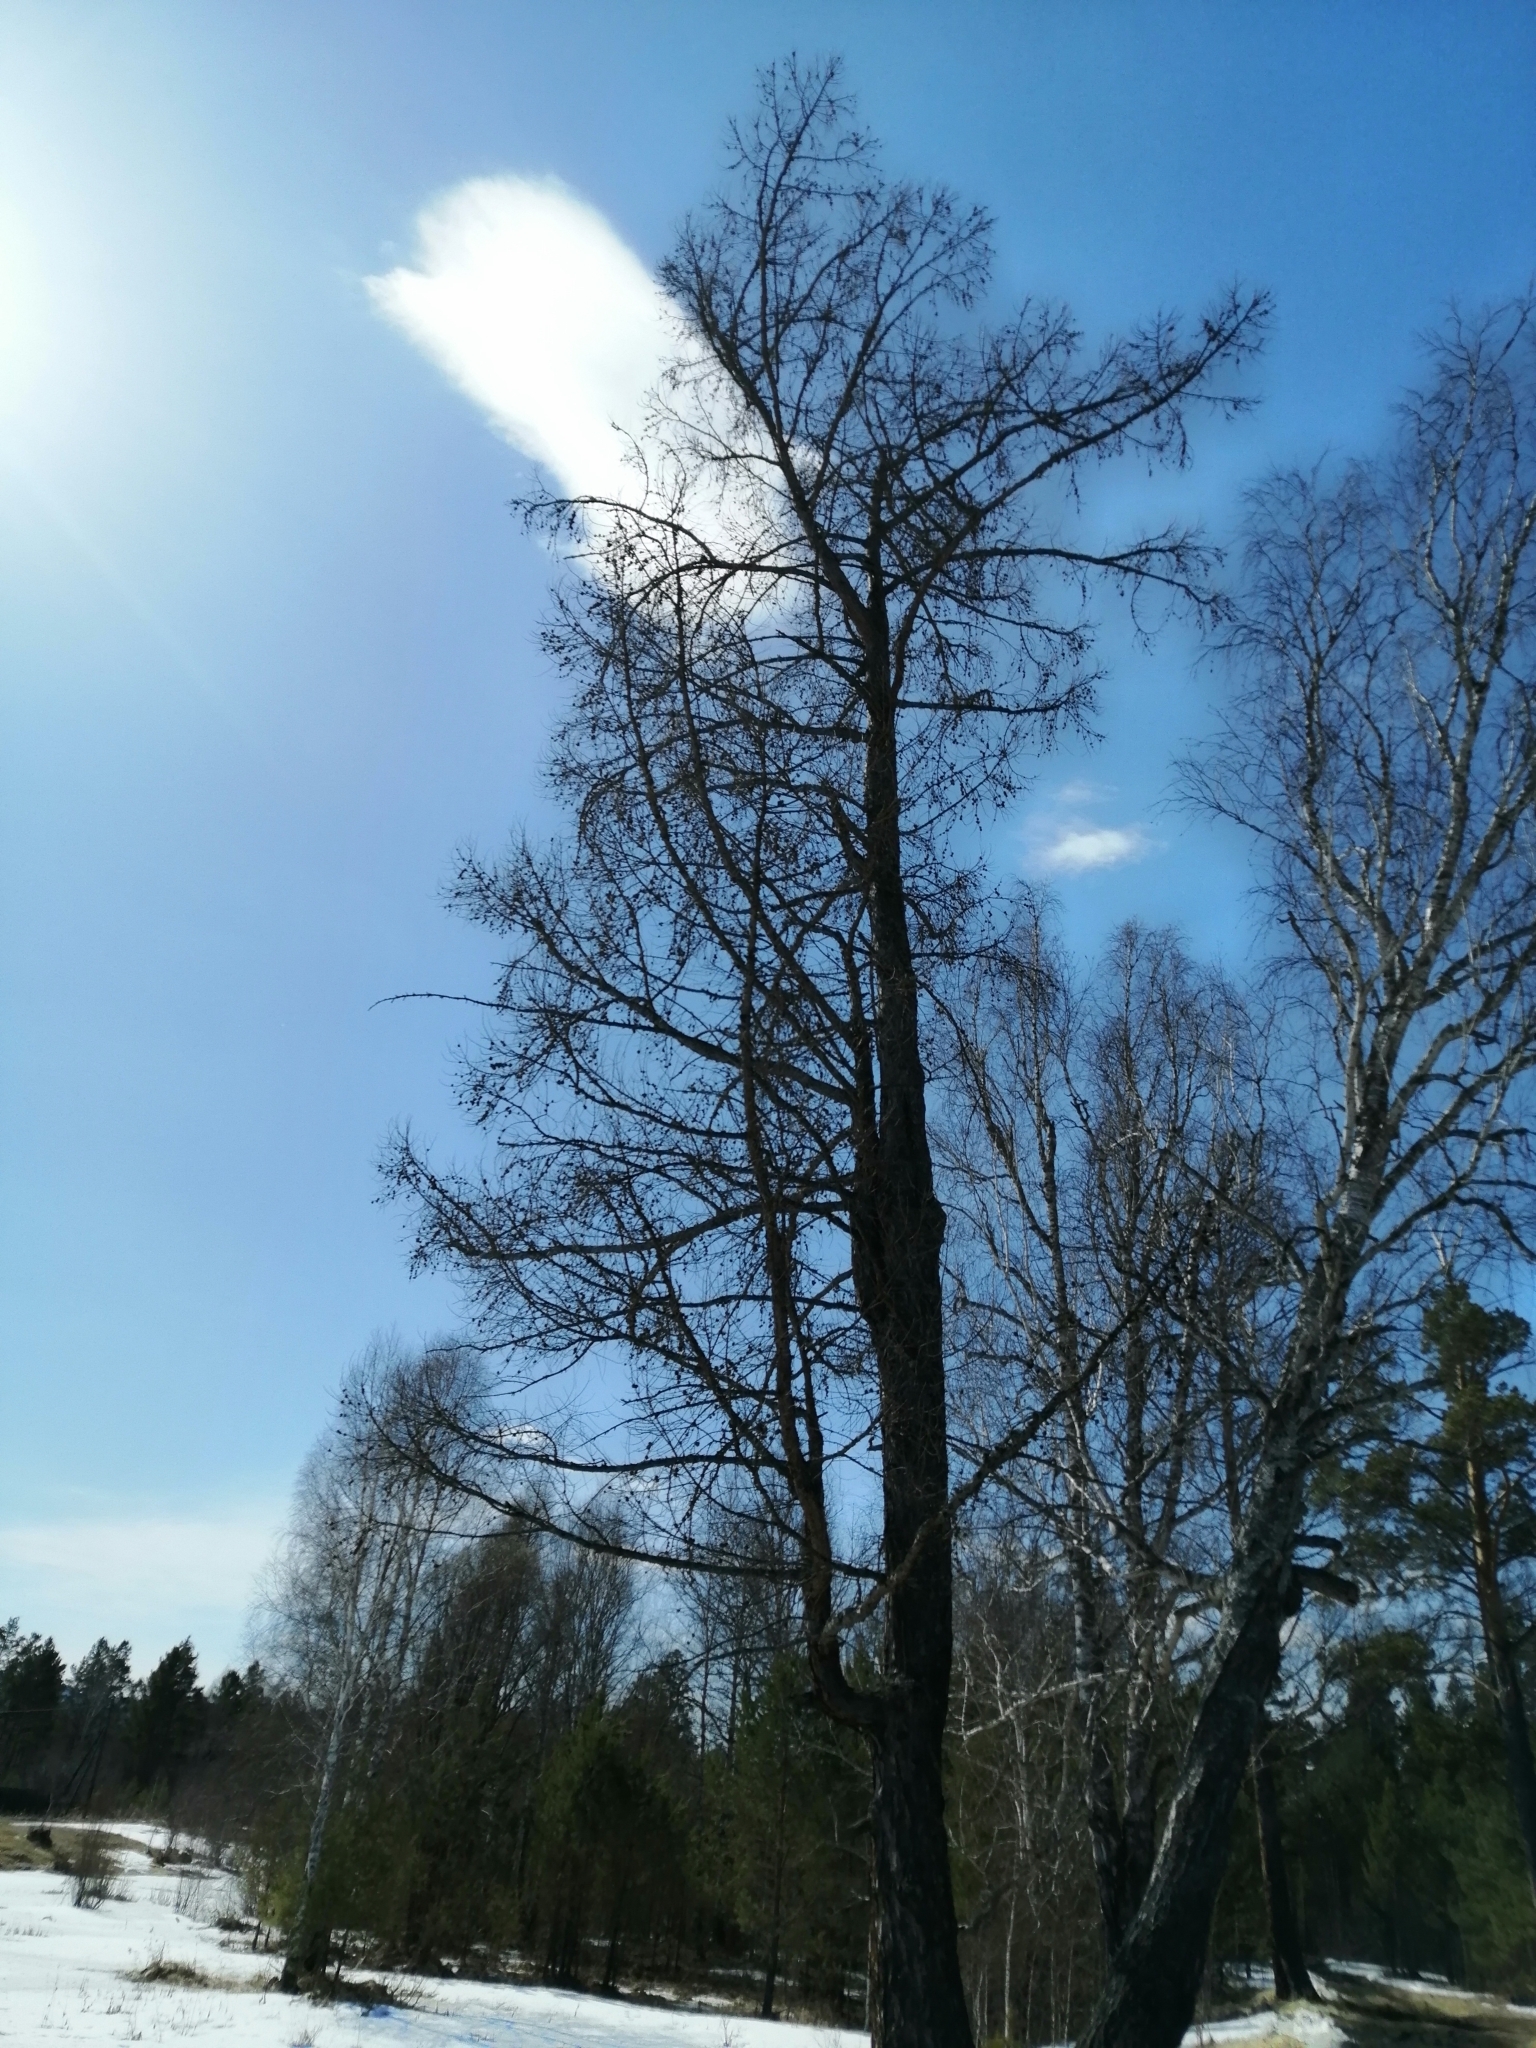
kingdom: Plantae
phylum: Tracheophyta
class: Pinopsida
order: Pinales
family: Pinaceae
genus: Larix
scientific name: Larix sibirica
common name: Siberian larch
